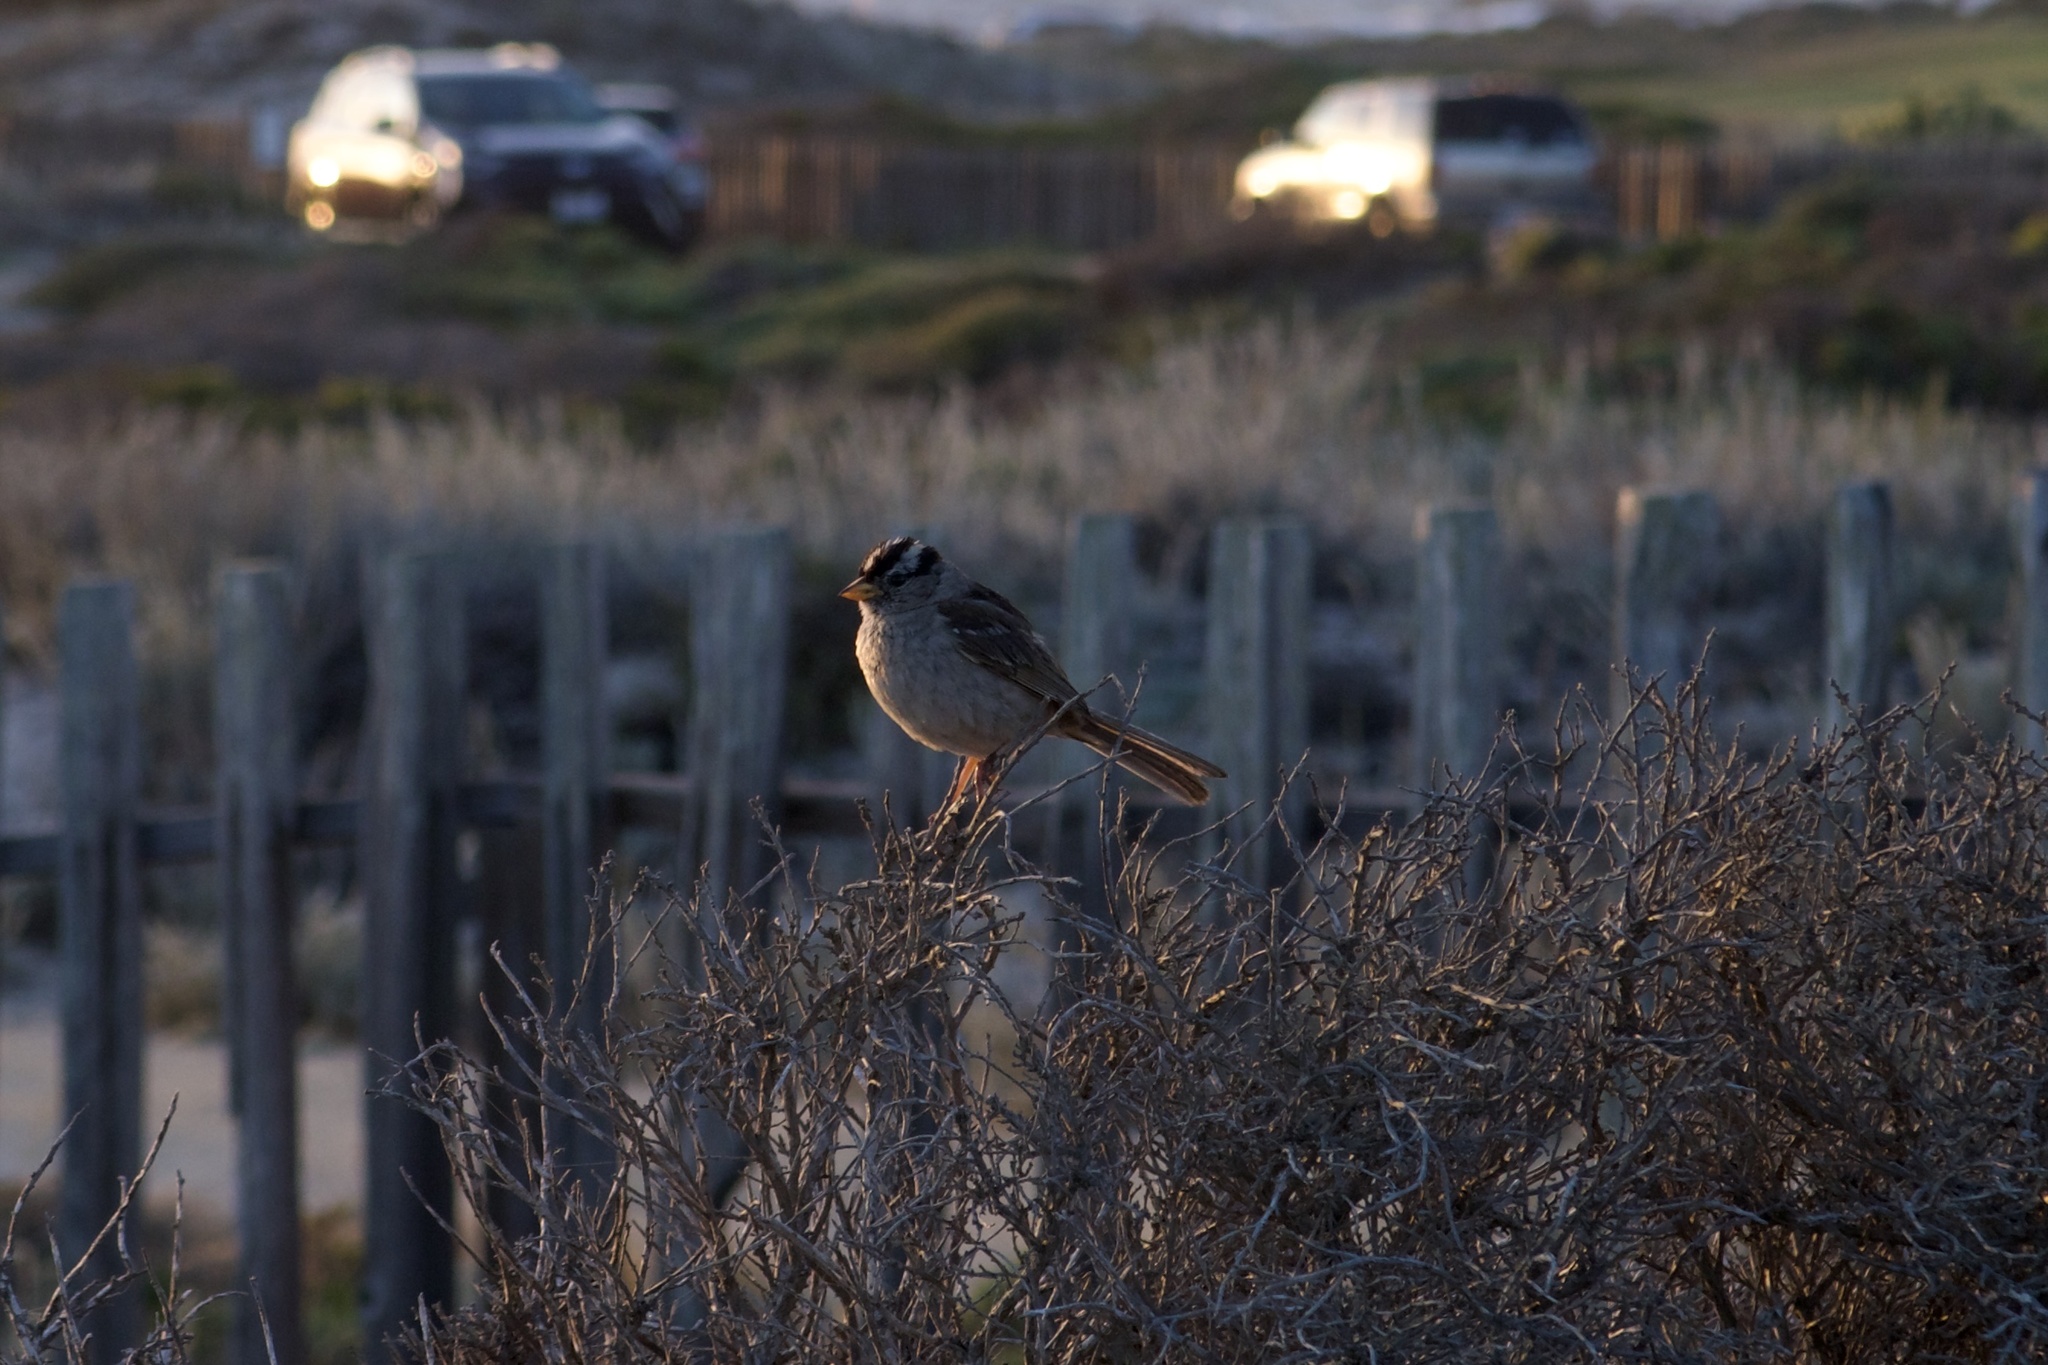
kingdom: Animalia
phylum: Chordata
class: Aves
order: Passeriformes
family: Passerellidae
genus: Zonotrichia
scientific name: Zonotrichia leucophrys
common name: White-crowned sparrow
